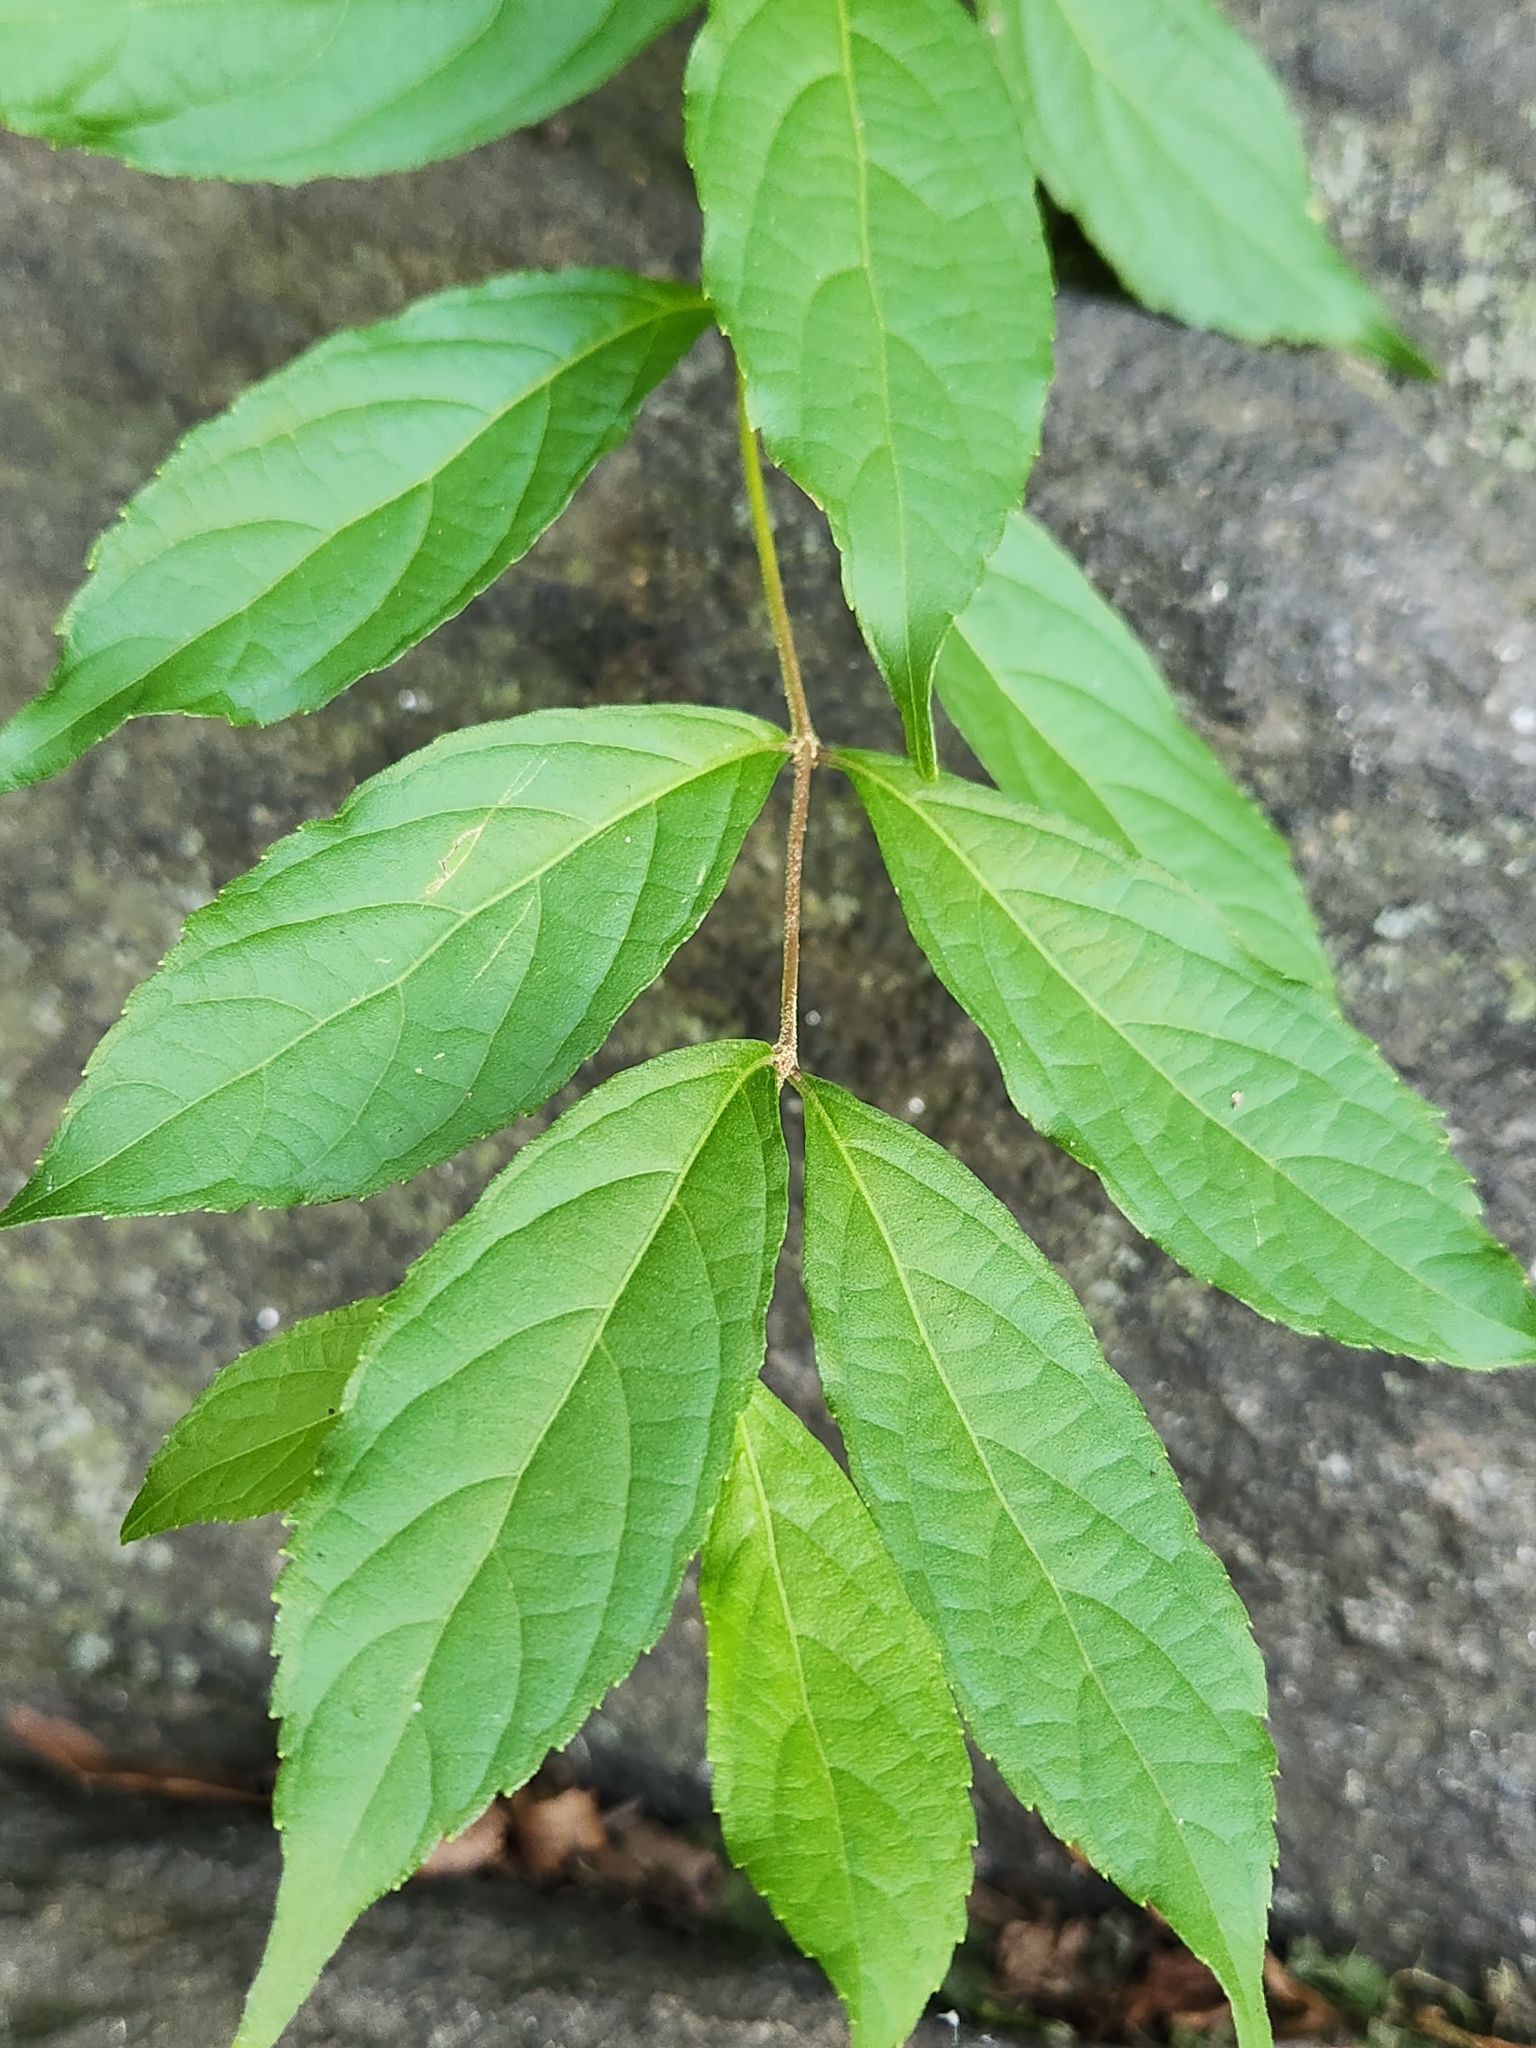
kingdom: Plantae
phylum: Tracheophyta
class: Magnoliopsida
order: Lamiales
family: Lamiaceae
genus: Callicarpa
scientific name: Callicarpa dichotoma
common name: Purple beauty-berry
